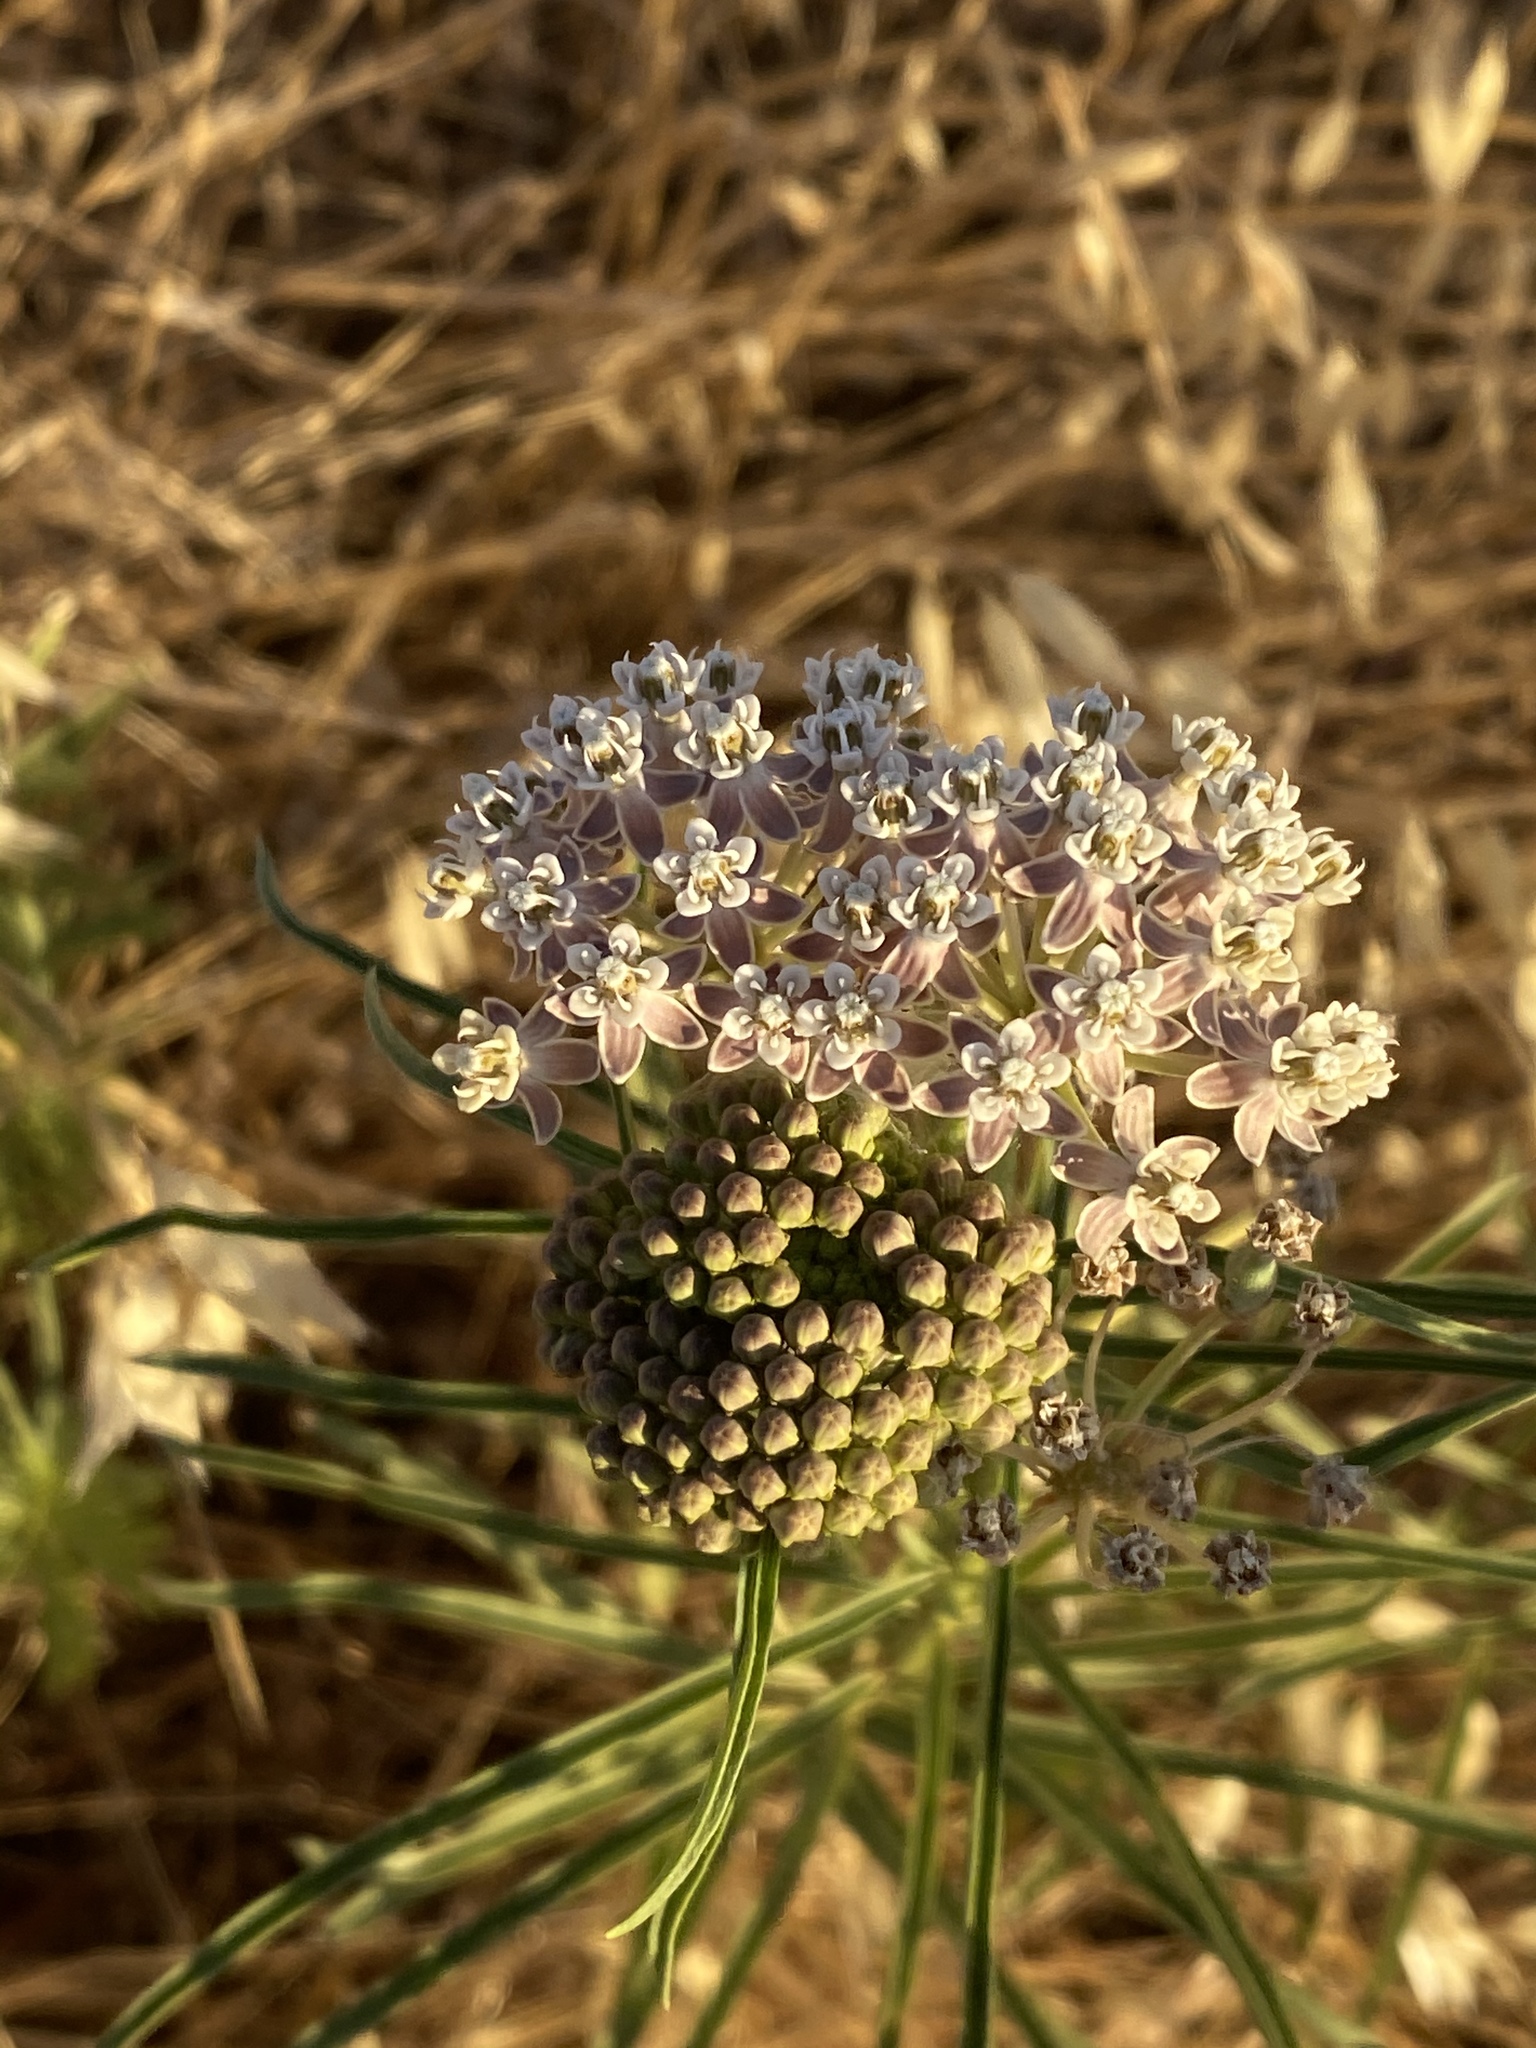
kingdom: Plantae
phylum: Tracheophyta
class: Magnoliopsida
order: Gentianales
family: Apocynaceae
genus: Asclepias
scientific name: Asclepias fascicularis
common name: Mexican milkweed
